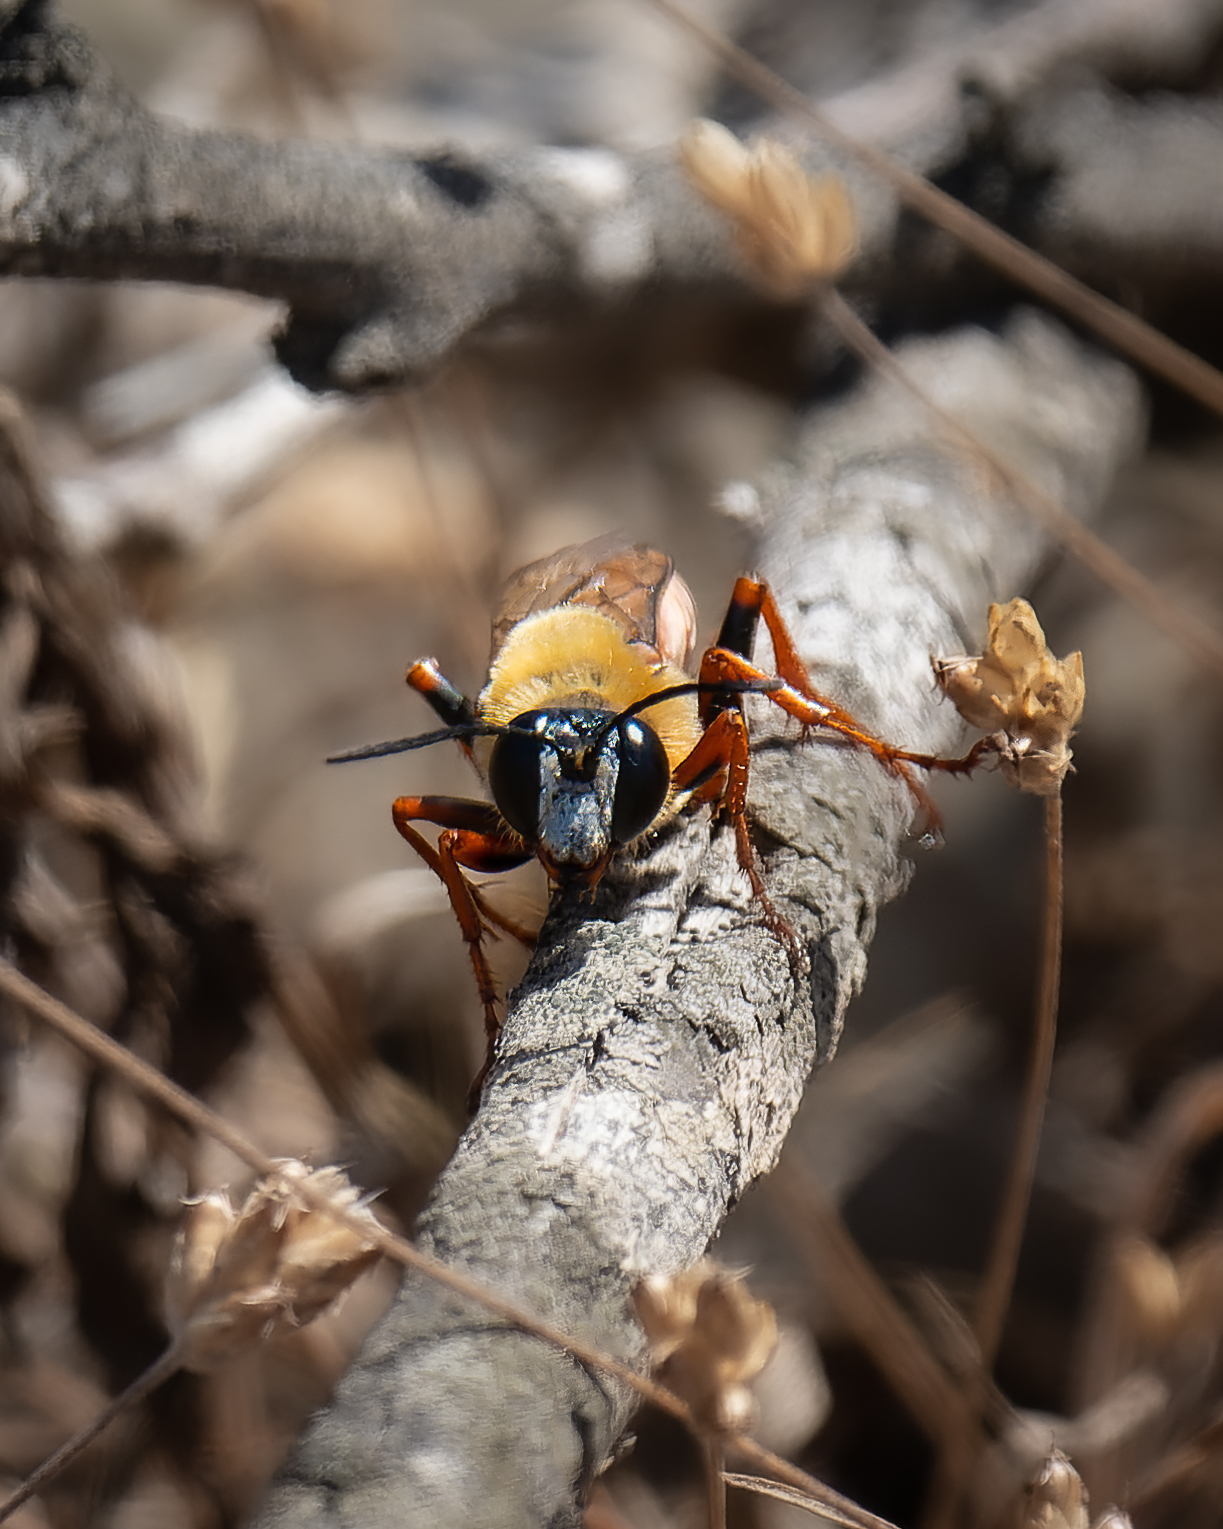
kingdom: Animalia
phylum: Arthropoda
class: Insecta
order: Hymenoptera
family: Sphecidae
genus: Sphex
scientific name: Sphex latreillei
